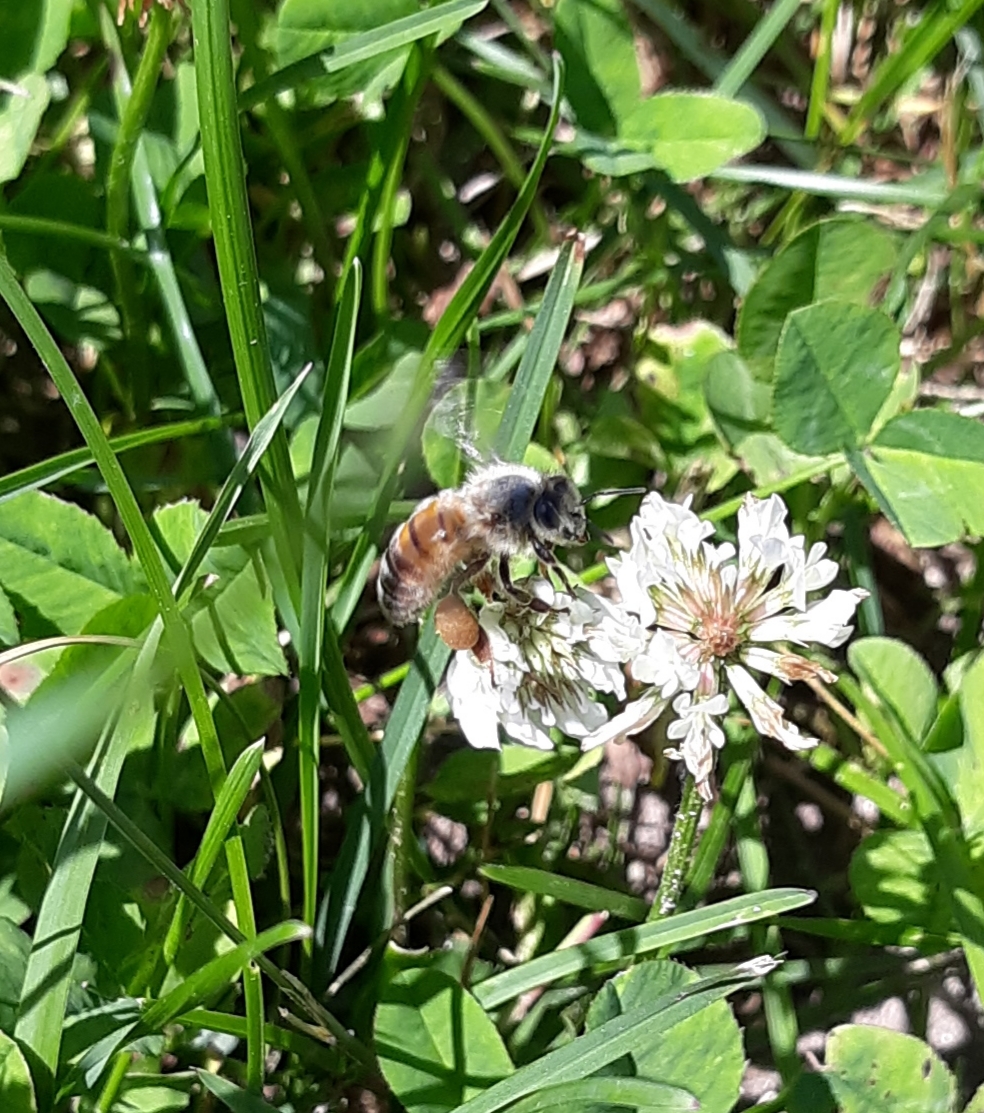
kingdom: Animalia
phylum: Arthropoda
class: Insecta
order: Hymenoptera
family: Apidae
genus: Apis
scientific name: Apis mellifera
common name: Honey bee
